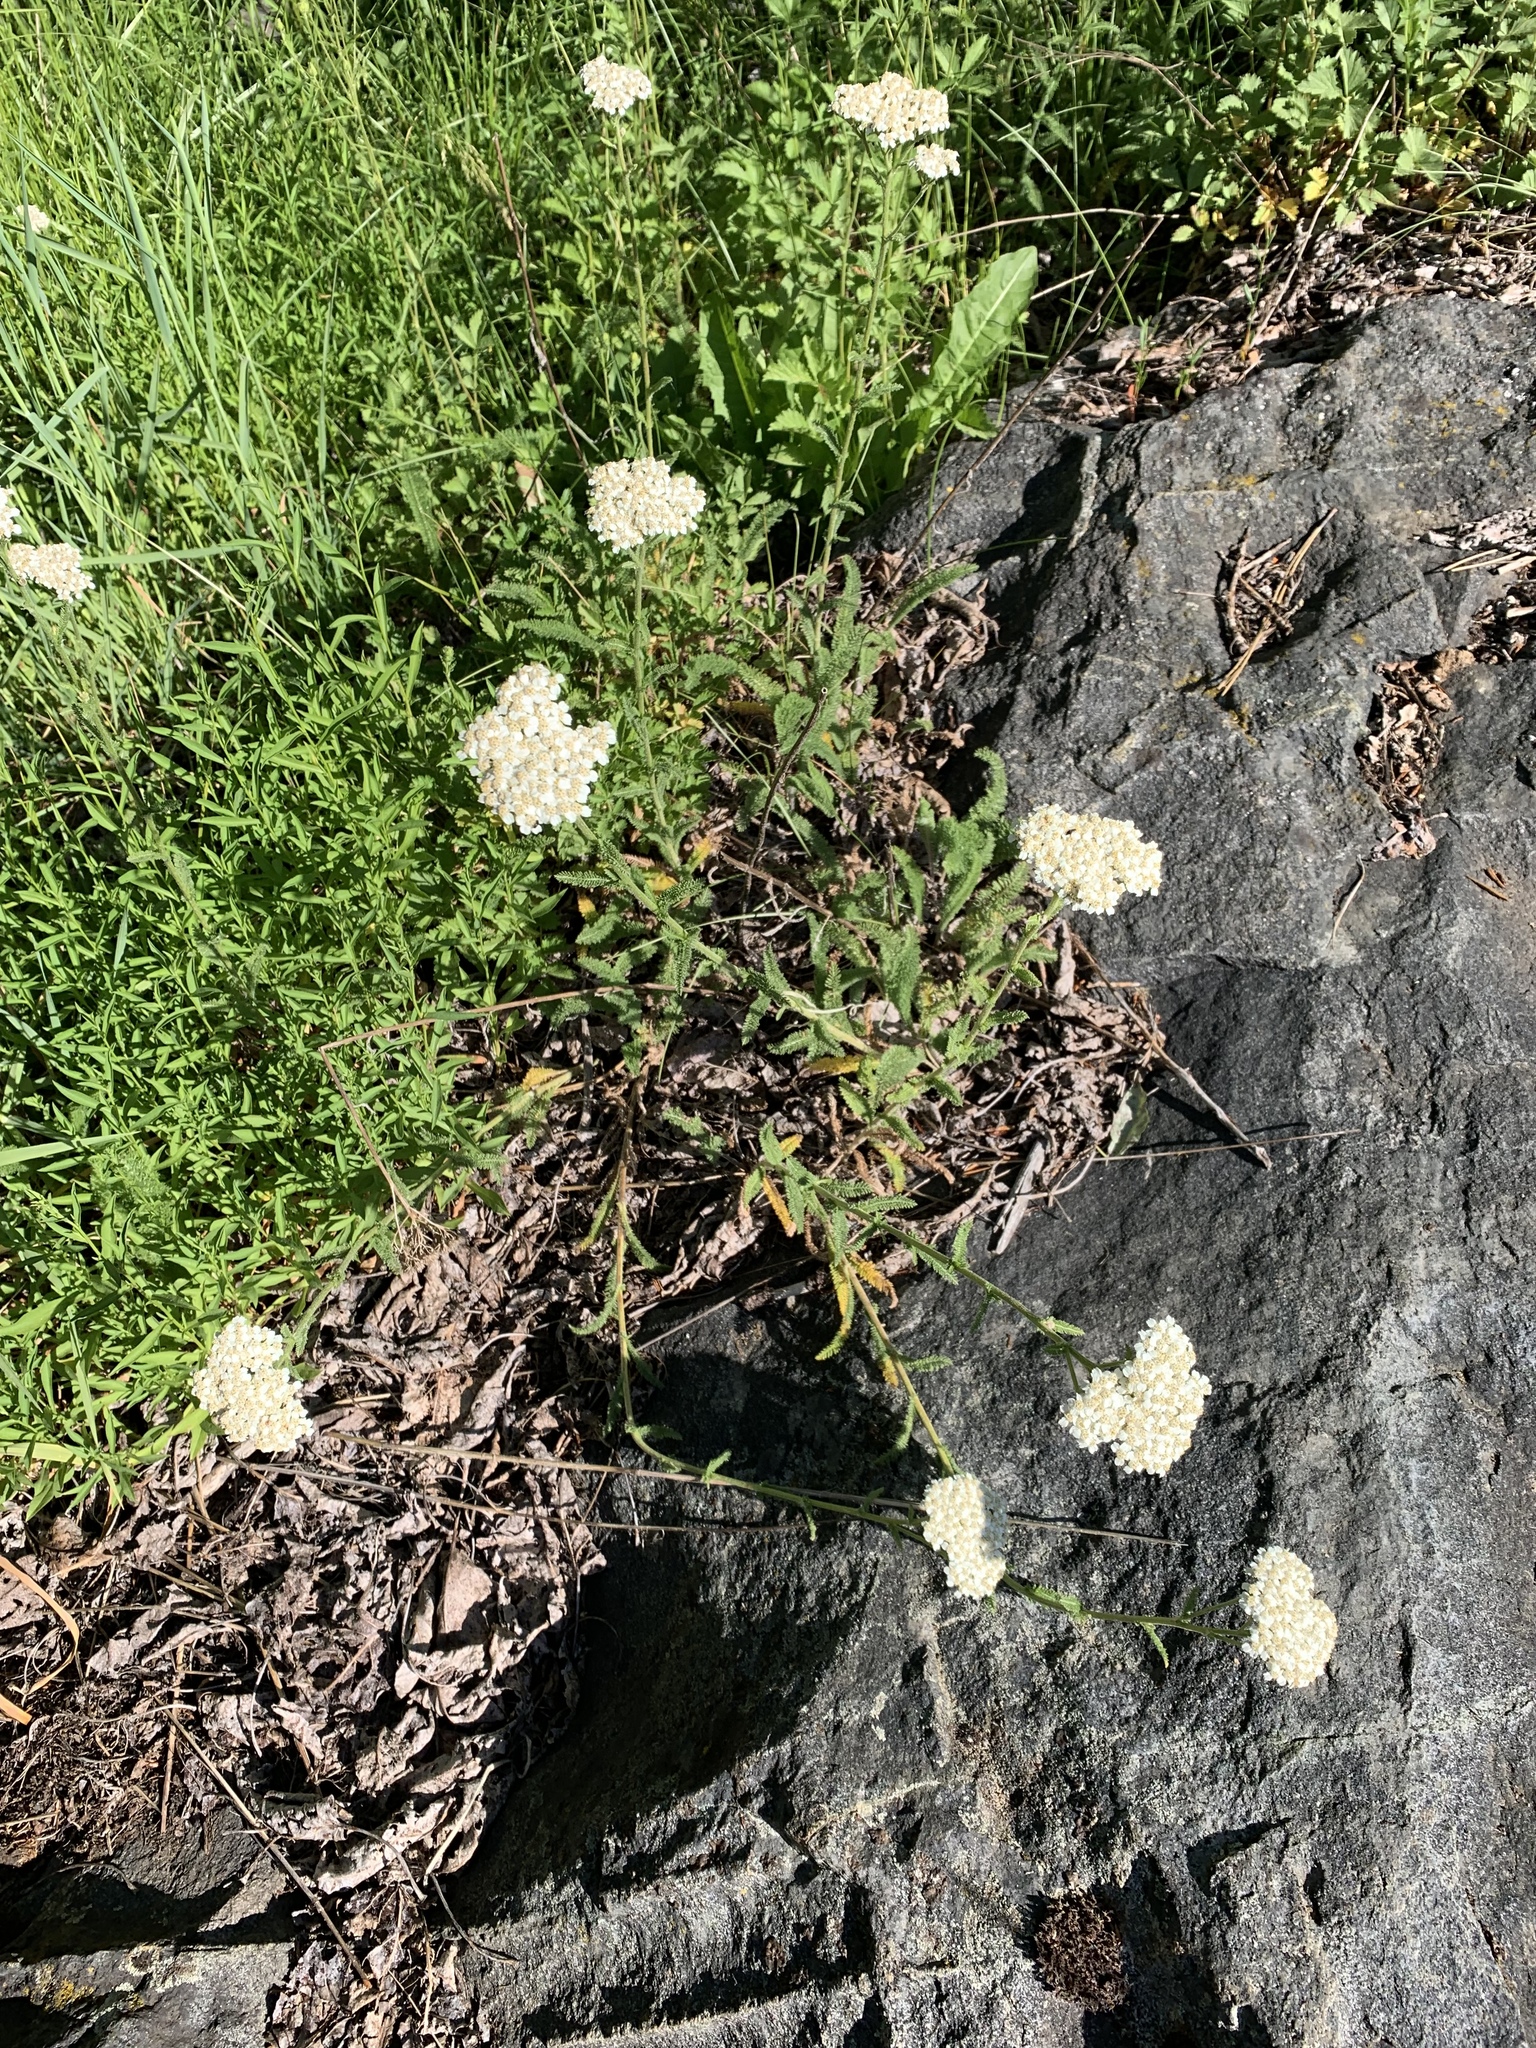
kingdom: Plantae
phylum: Tracheophyta
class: Magnoliopsida
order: Asterales
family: Asteraceae
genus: Achillea
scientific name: Achillea millefolium
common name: Yarrow
